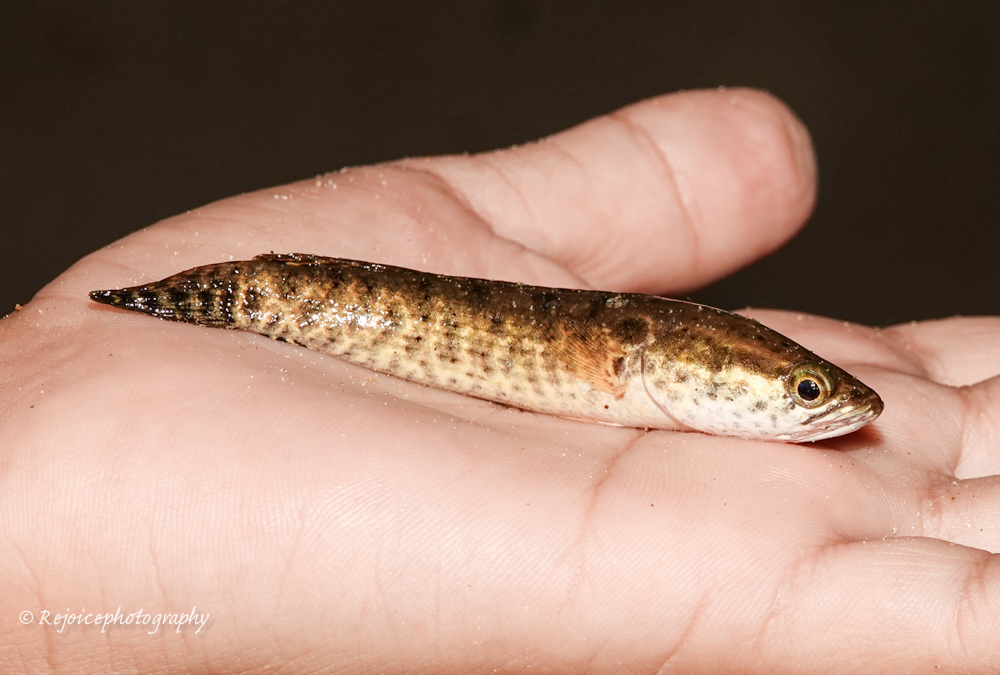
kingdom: Animalia
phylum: Chordata
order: Perciformes
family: Channidae
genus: Channa
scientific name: Channa punctata
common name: Spotted snakehead
